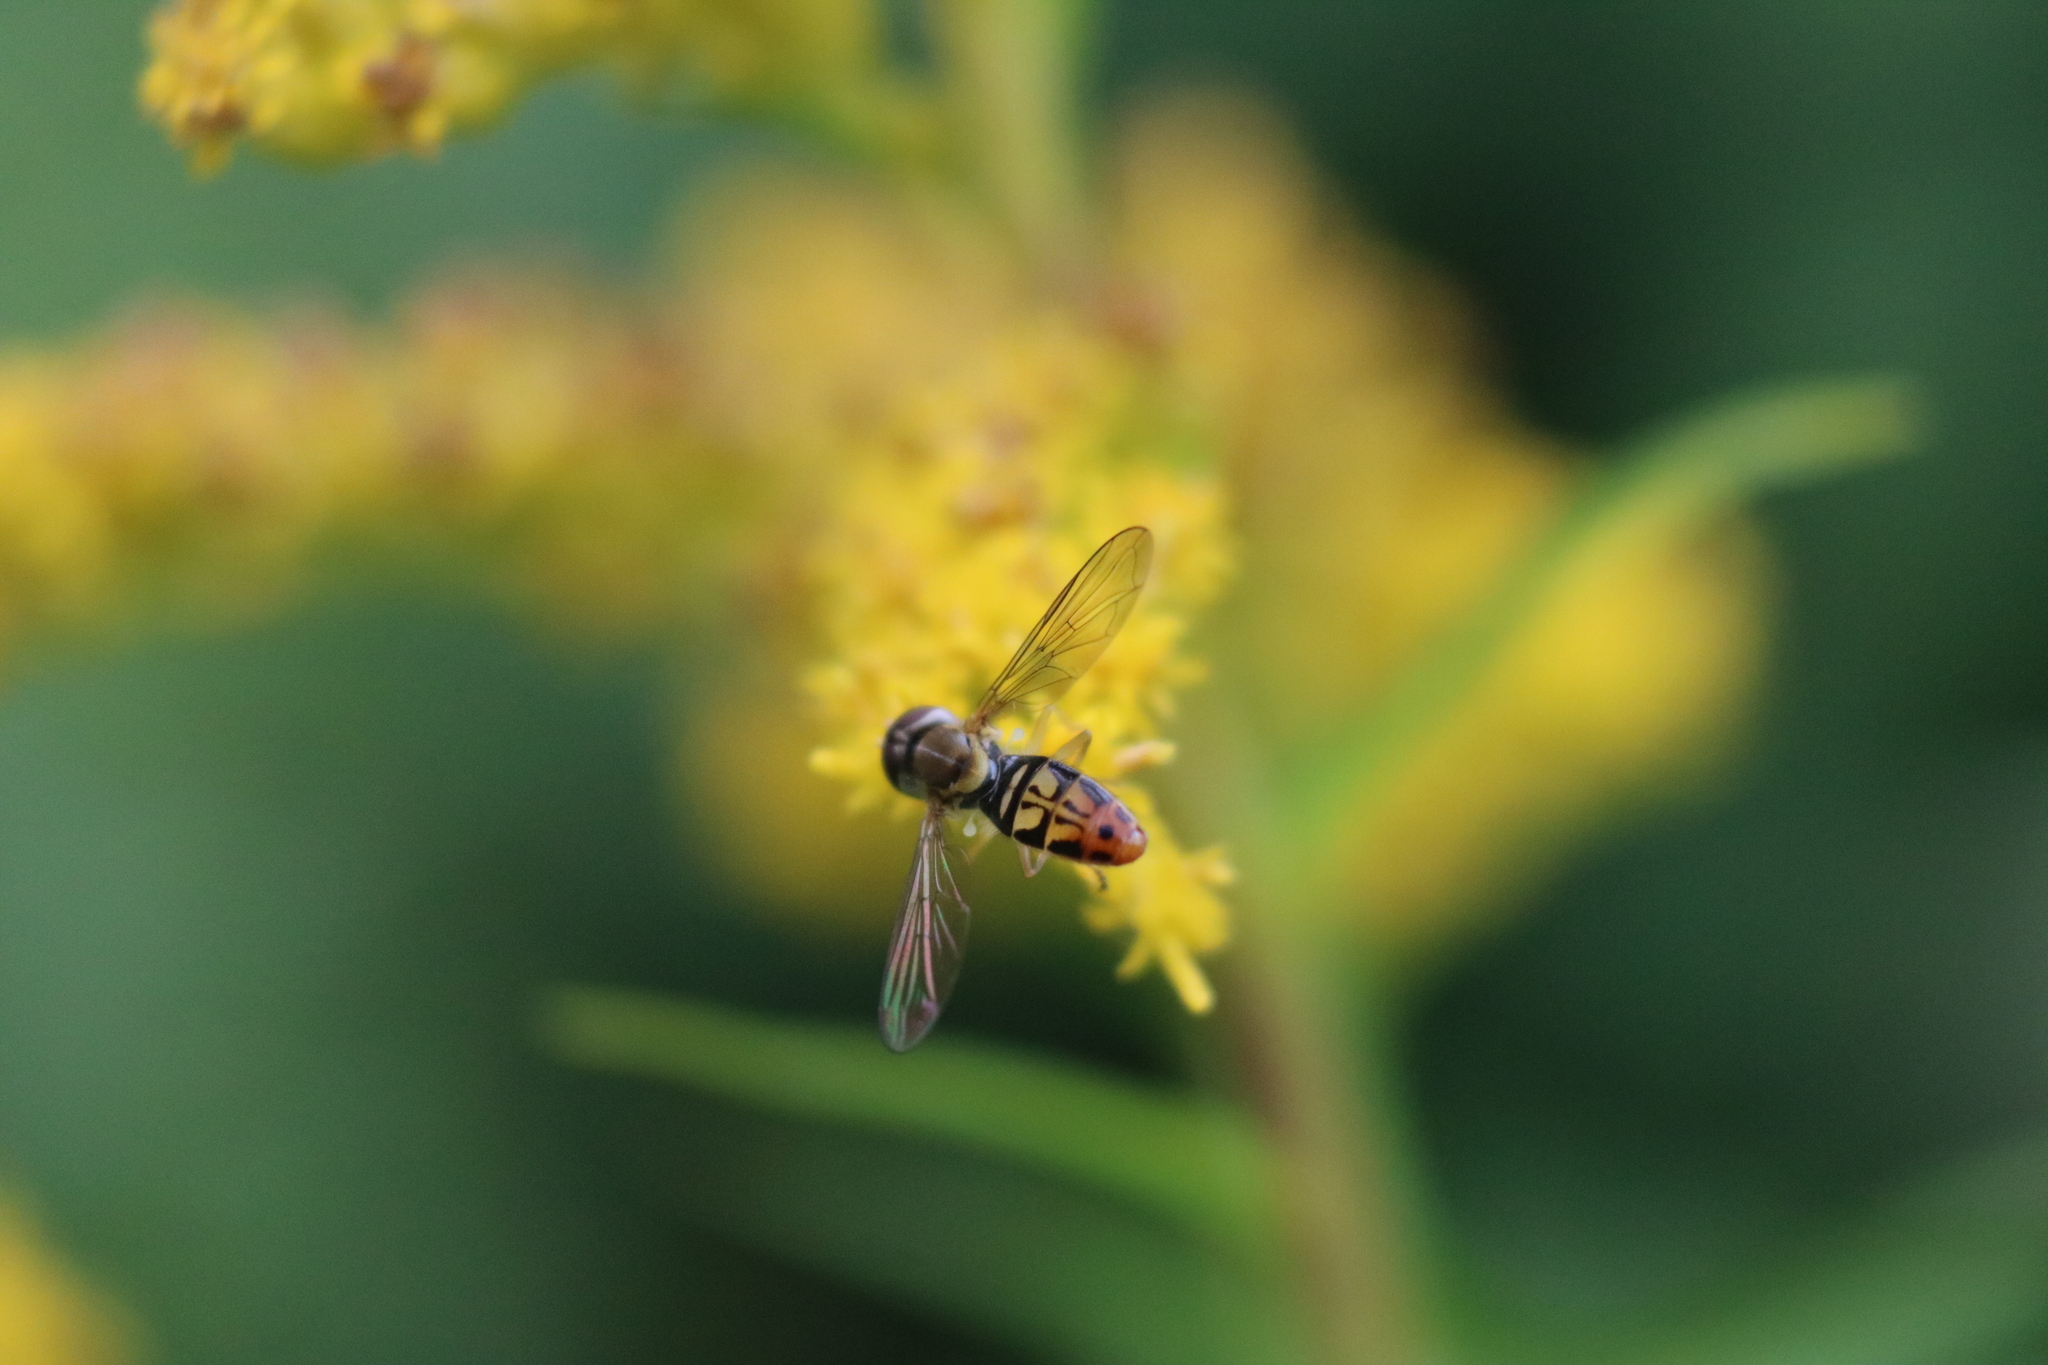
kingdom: Animalia
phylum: Arthropoda
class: Insecta
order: Diptera
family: Syrphidae
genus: Toxomerus
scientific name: Toxomerus marginatus
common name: Syrphid fly
